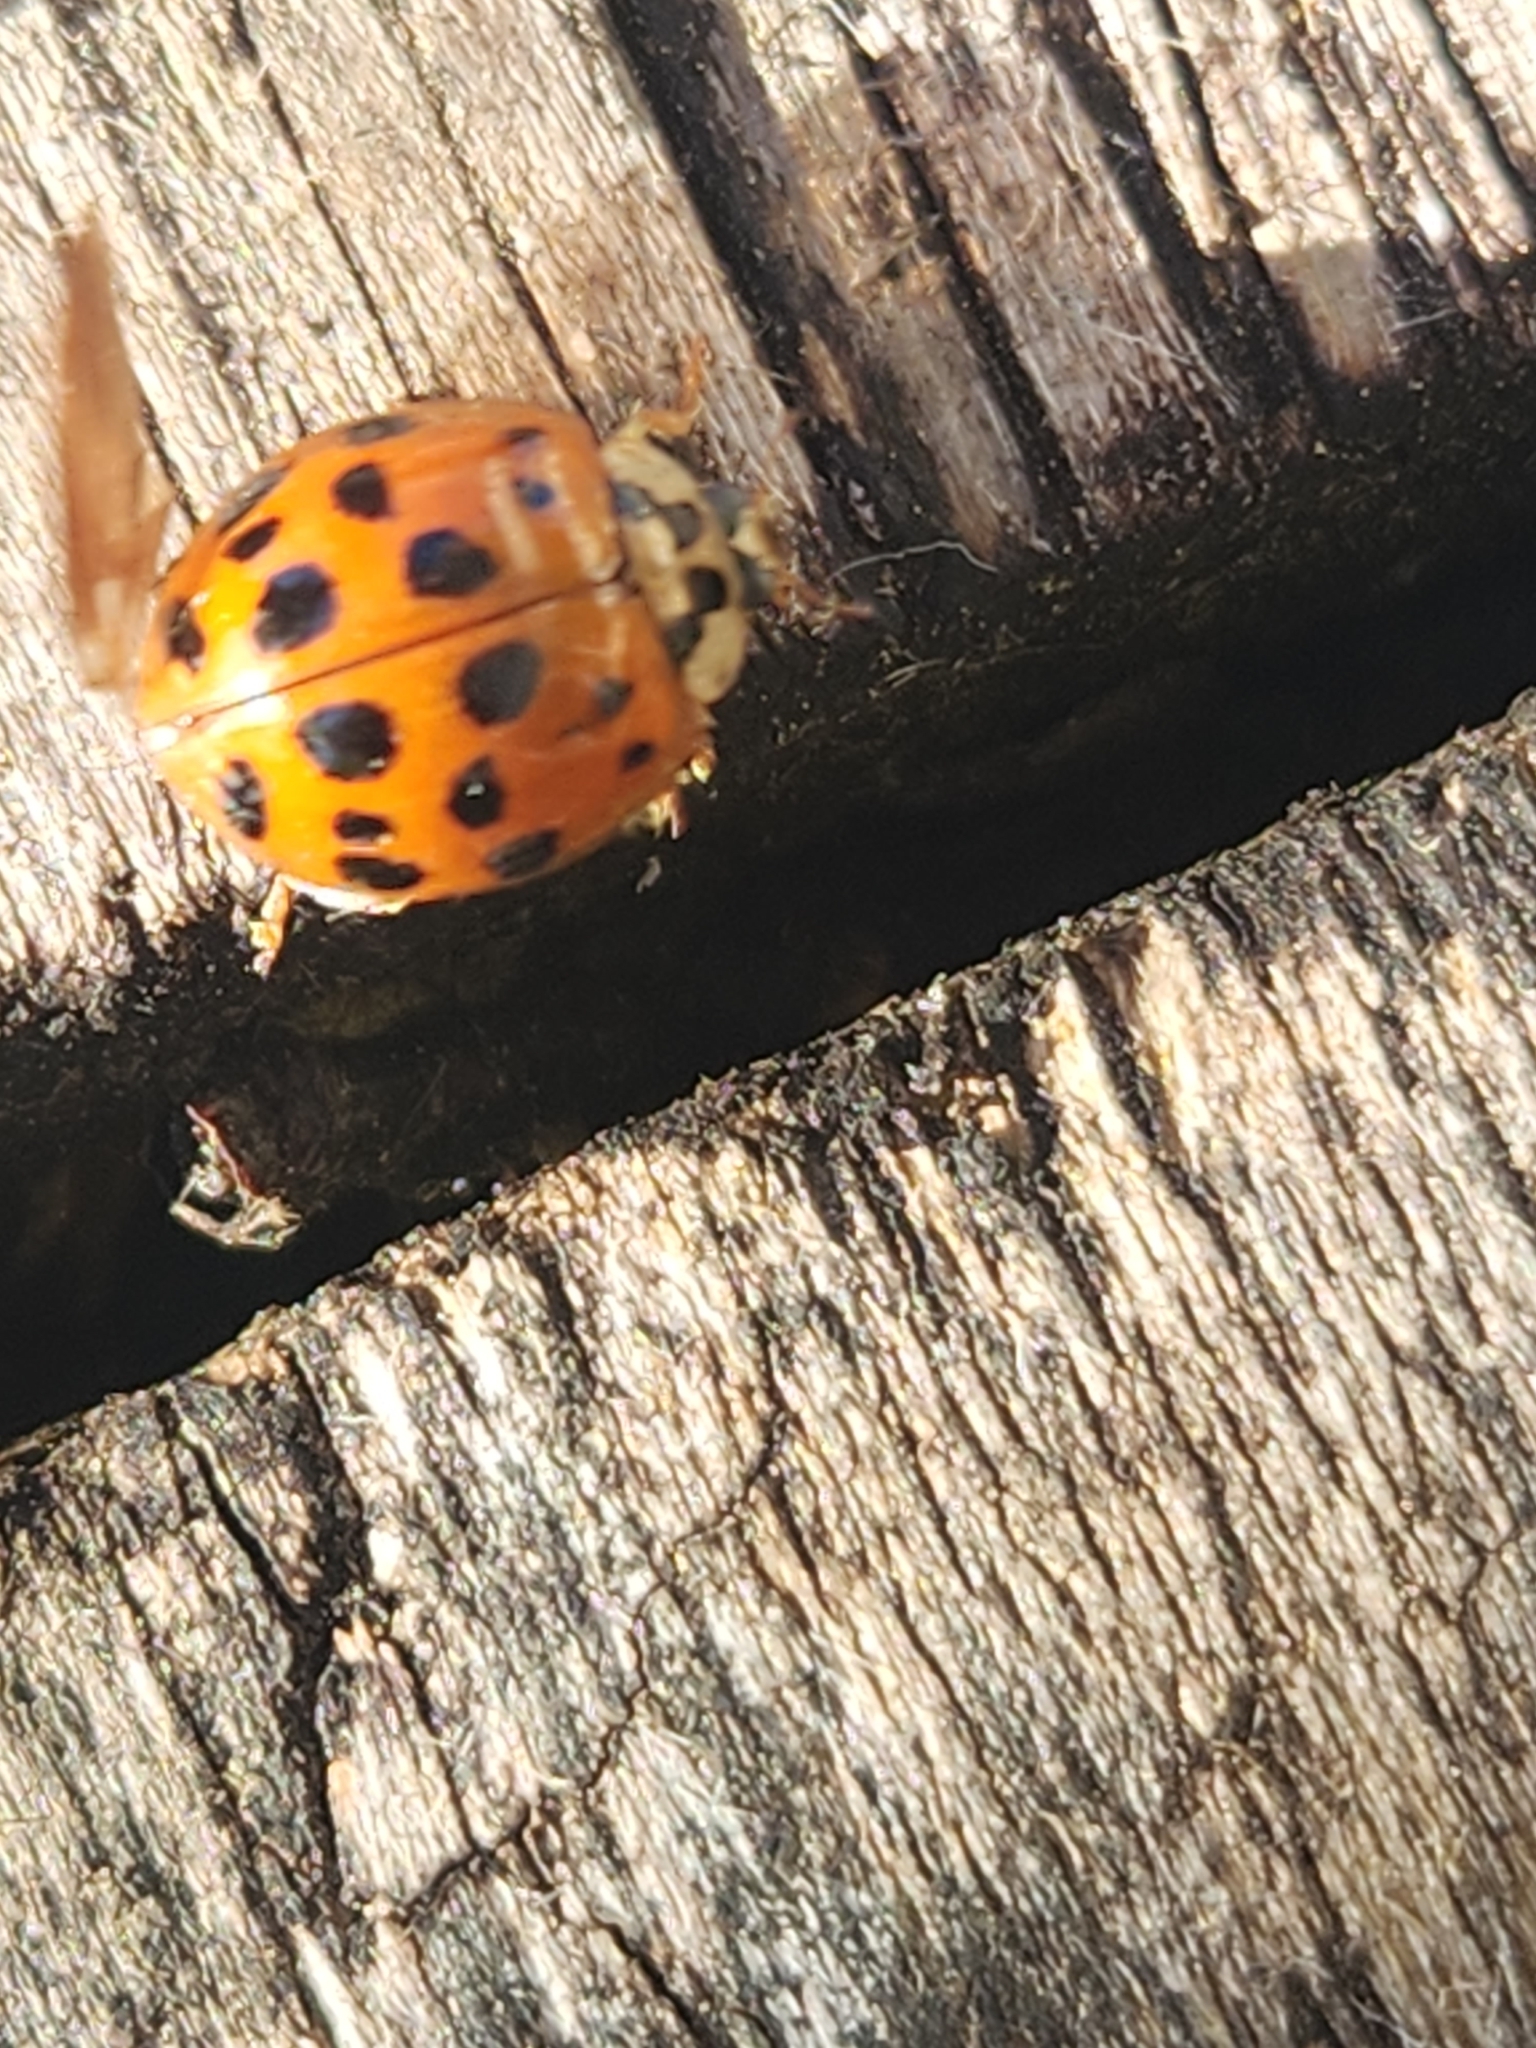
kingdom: Animalia
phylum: Arthropoda
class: Insecta
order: Coleoptera
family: Coccinellidae
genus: Harmonia
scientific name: Harmonia axyridis
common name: Harlequin ladybird
